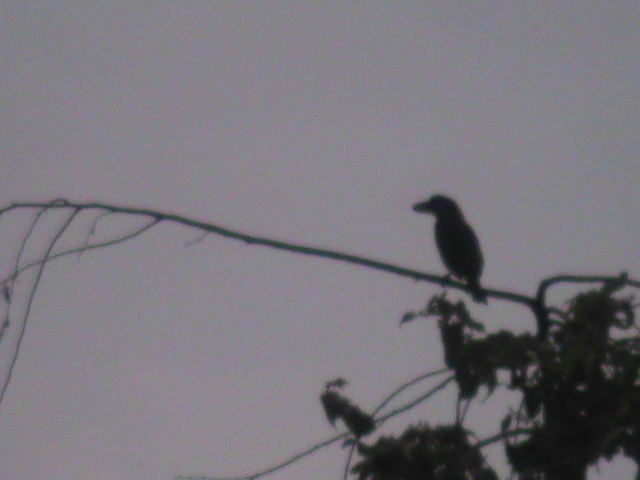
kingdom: Animalia
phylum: Chordata
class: Aves
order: Piciformes
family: Megalaimidae
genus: Psilopogon
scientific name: Psilopogon viridis
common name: White-cheeked barbet
